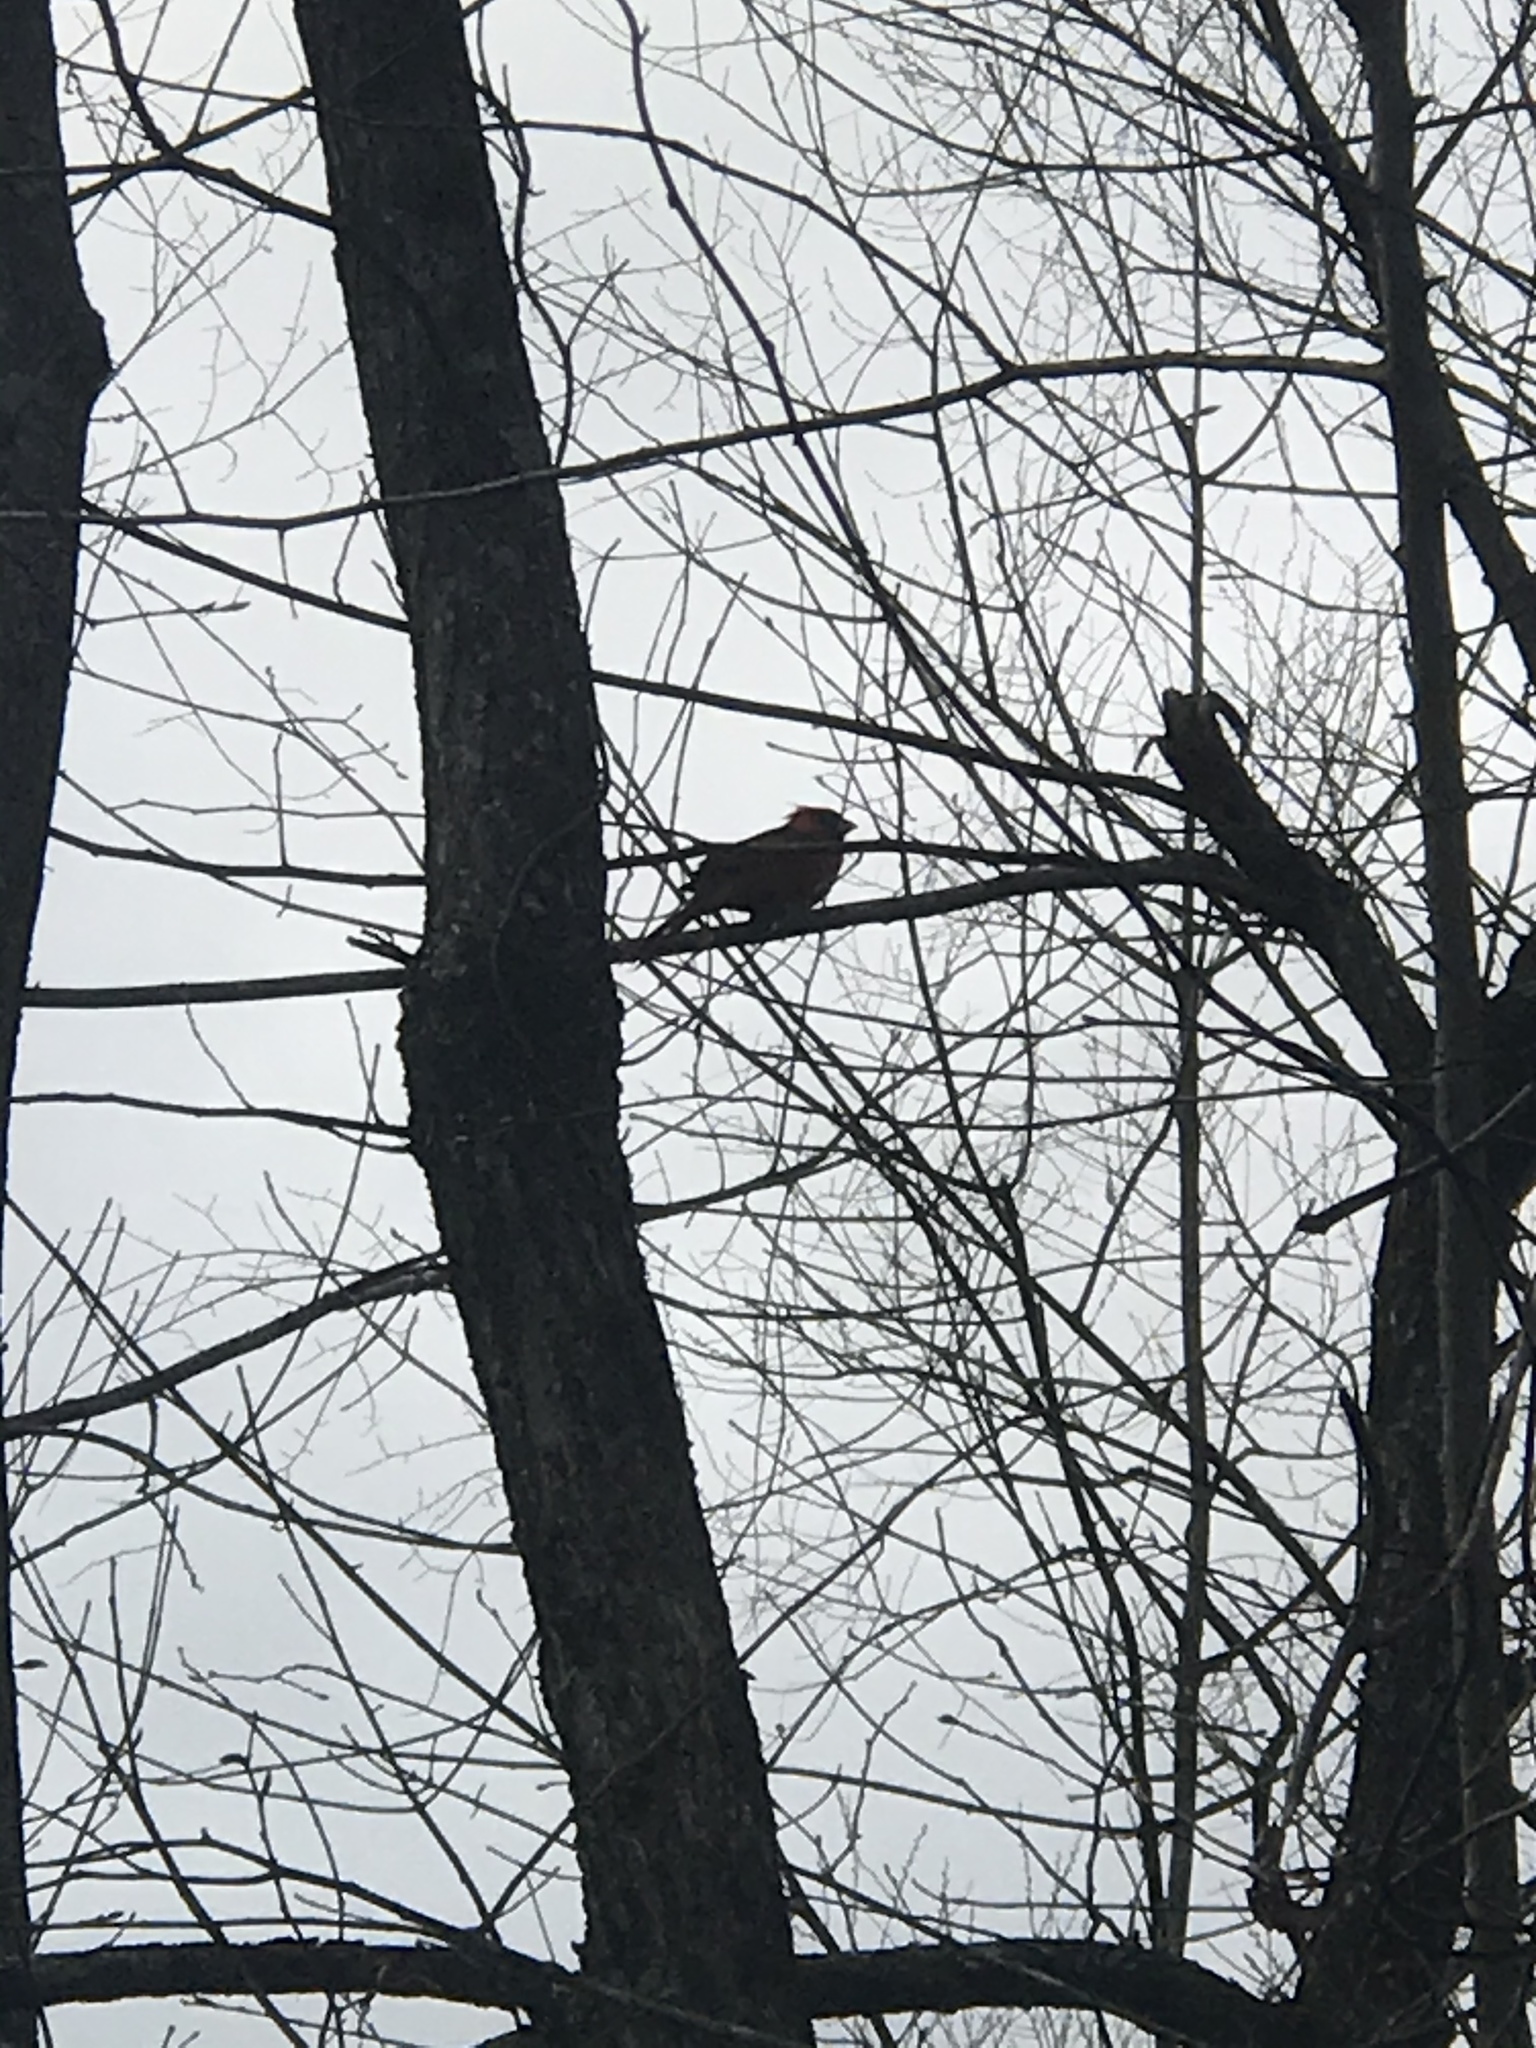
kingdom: Animalia
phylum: Chordata
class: Aves
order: Passeriformes
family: Cardinalidae
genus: Cardinalis
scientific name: Cardinalis cardinalis
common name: Northern cardinal
